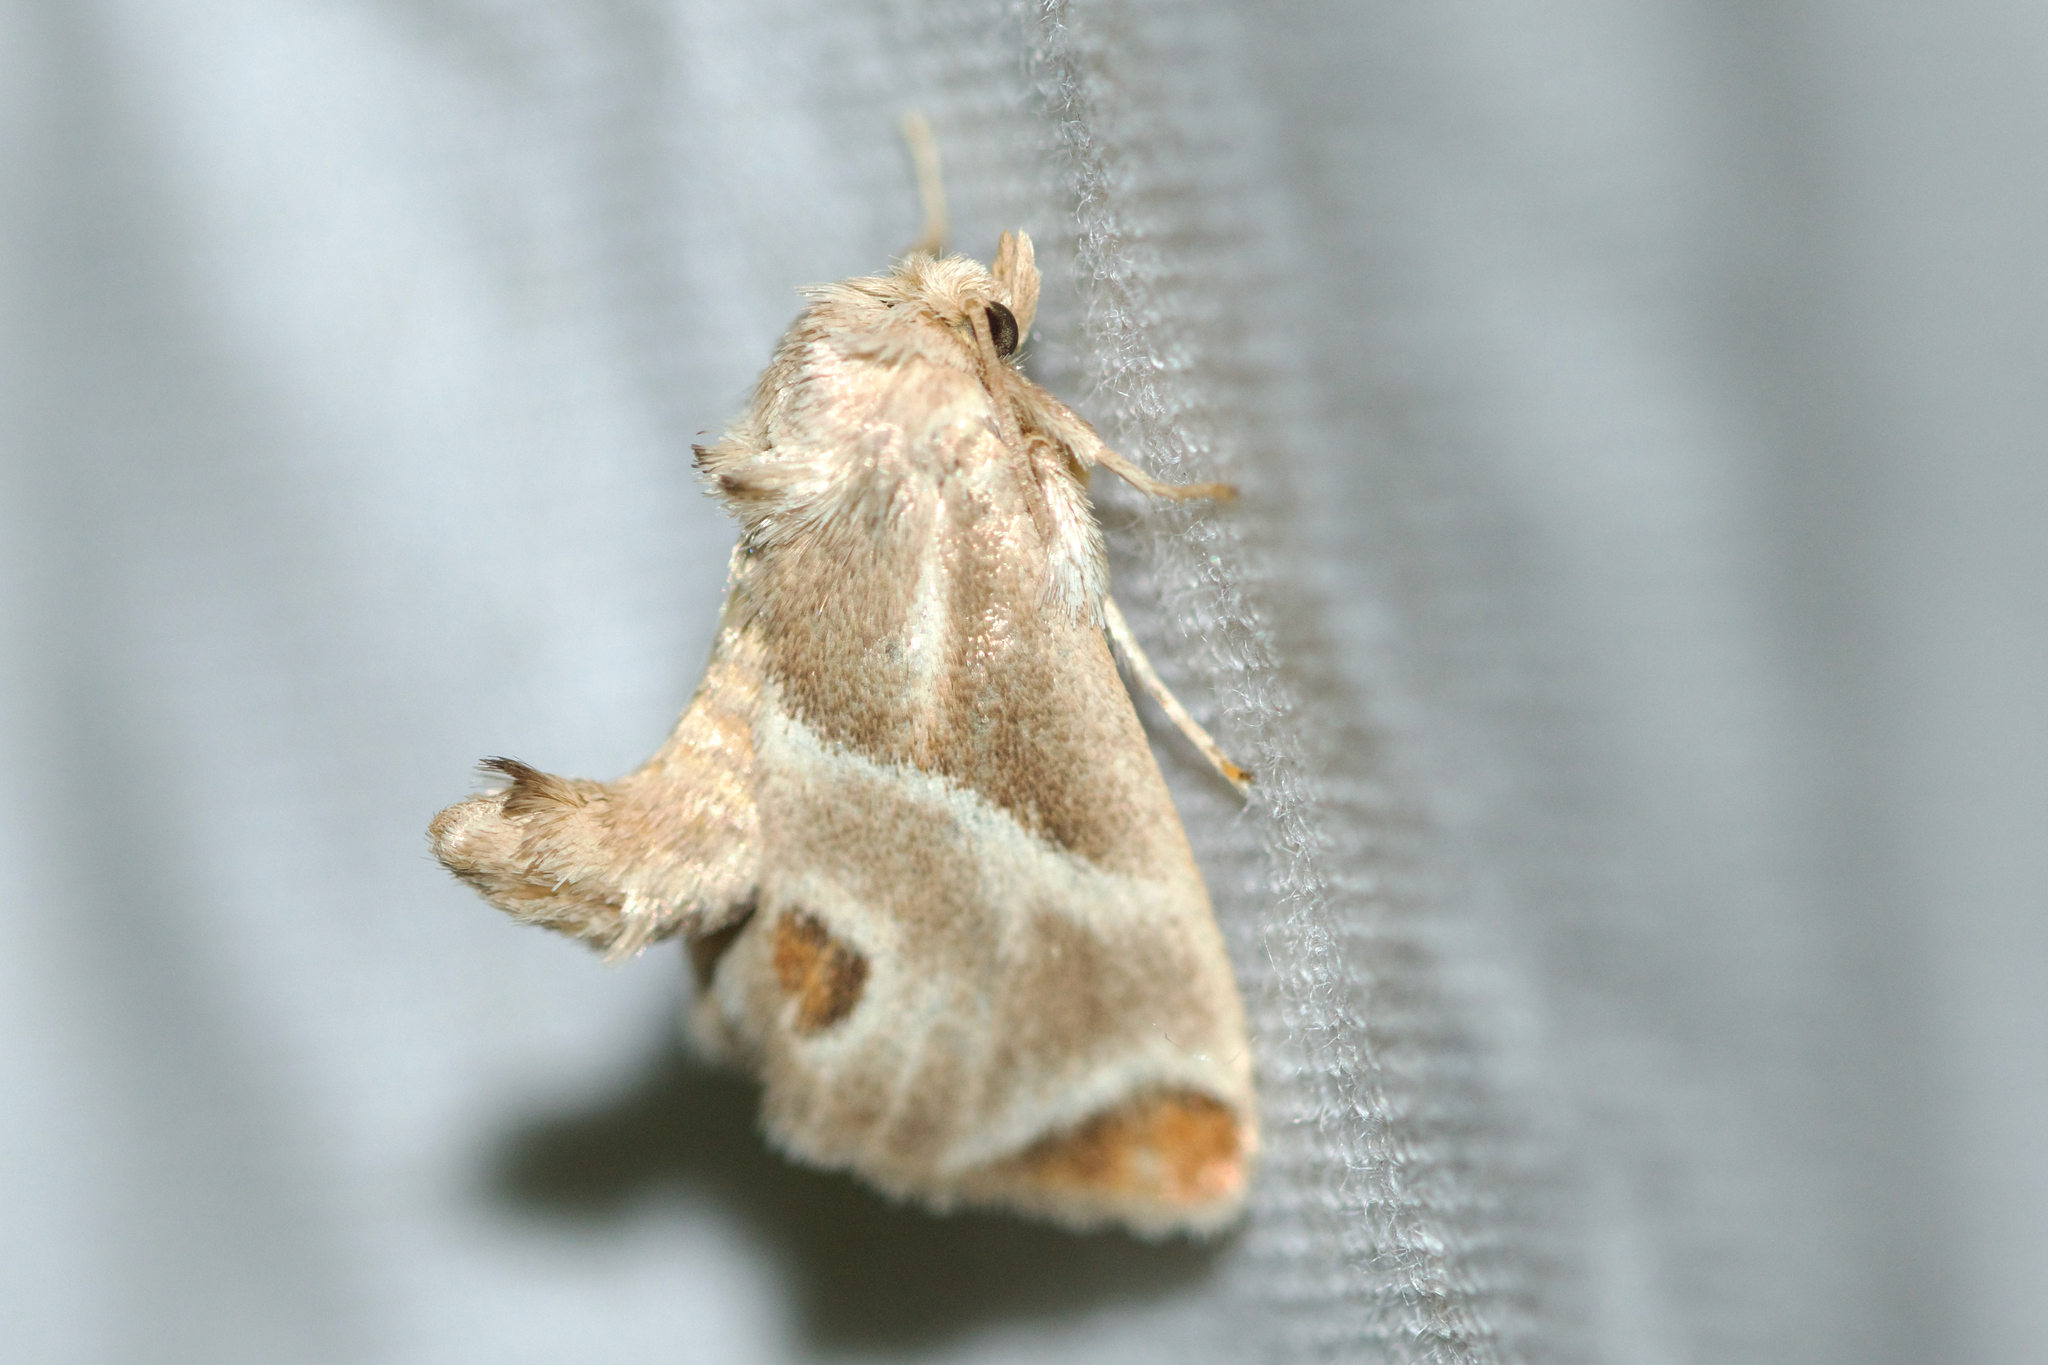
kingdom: Animalia
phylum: Arthropoda
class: Insecta
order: Lepidoptera
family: Limacodidae
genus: Apoda
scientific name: Apoda biguttata
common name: Shagreened slug moth
